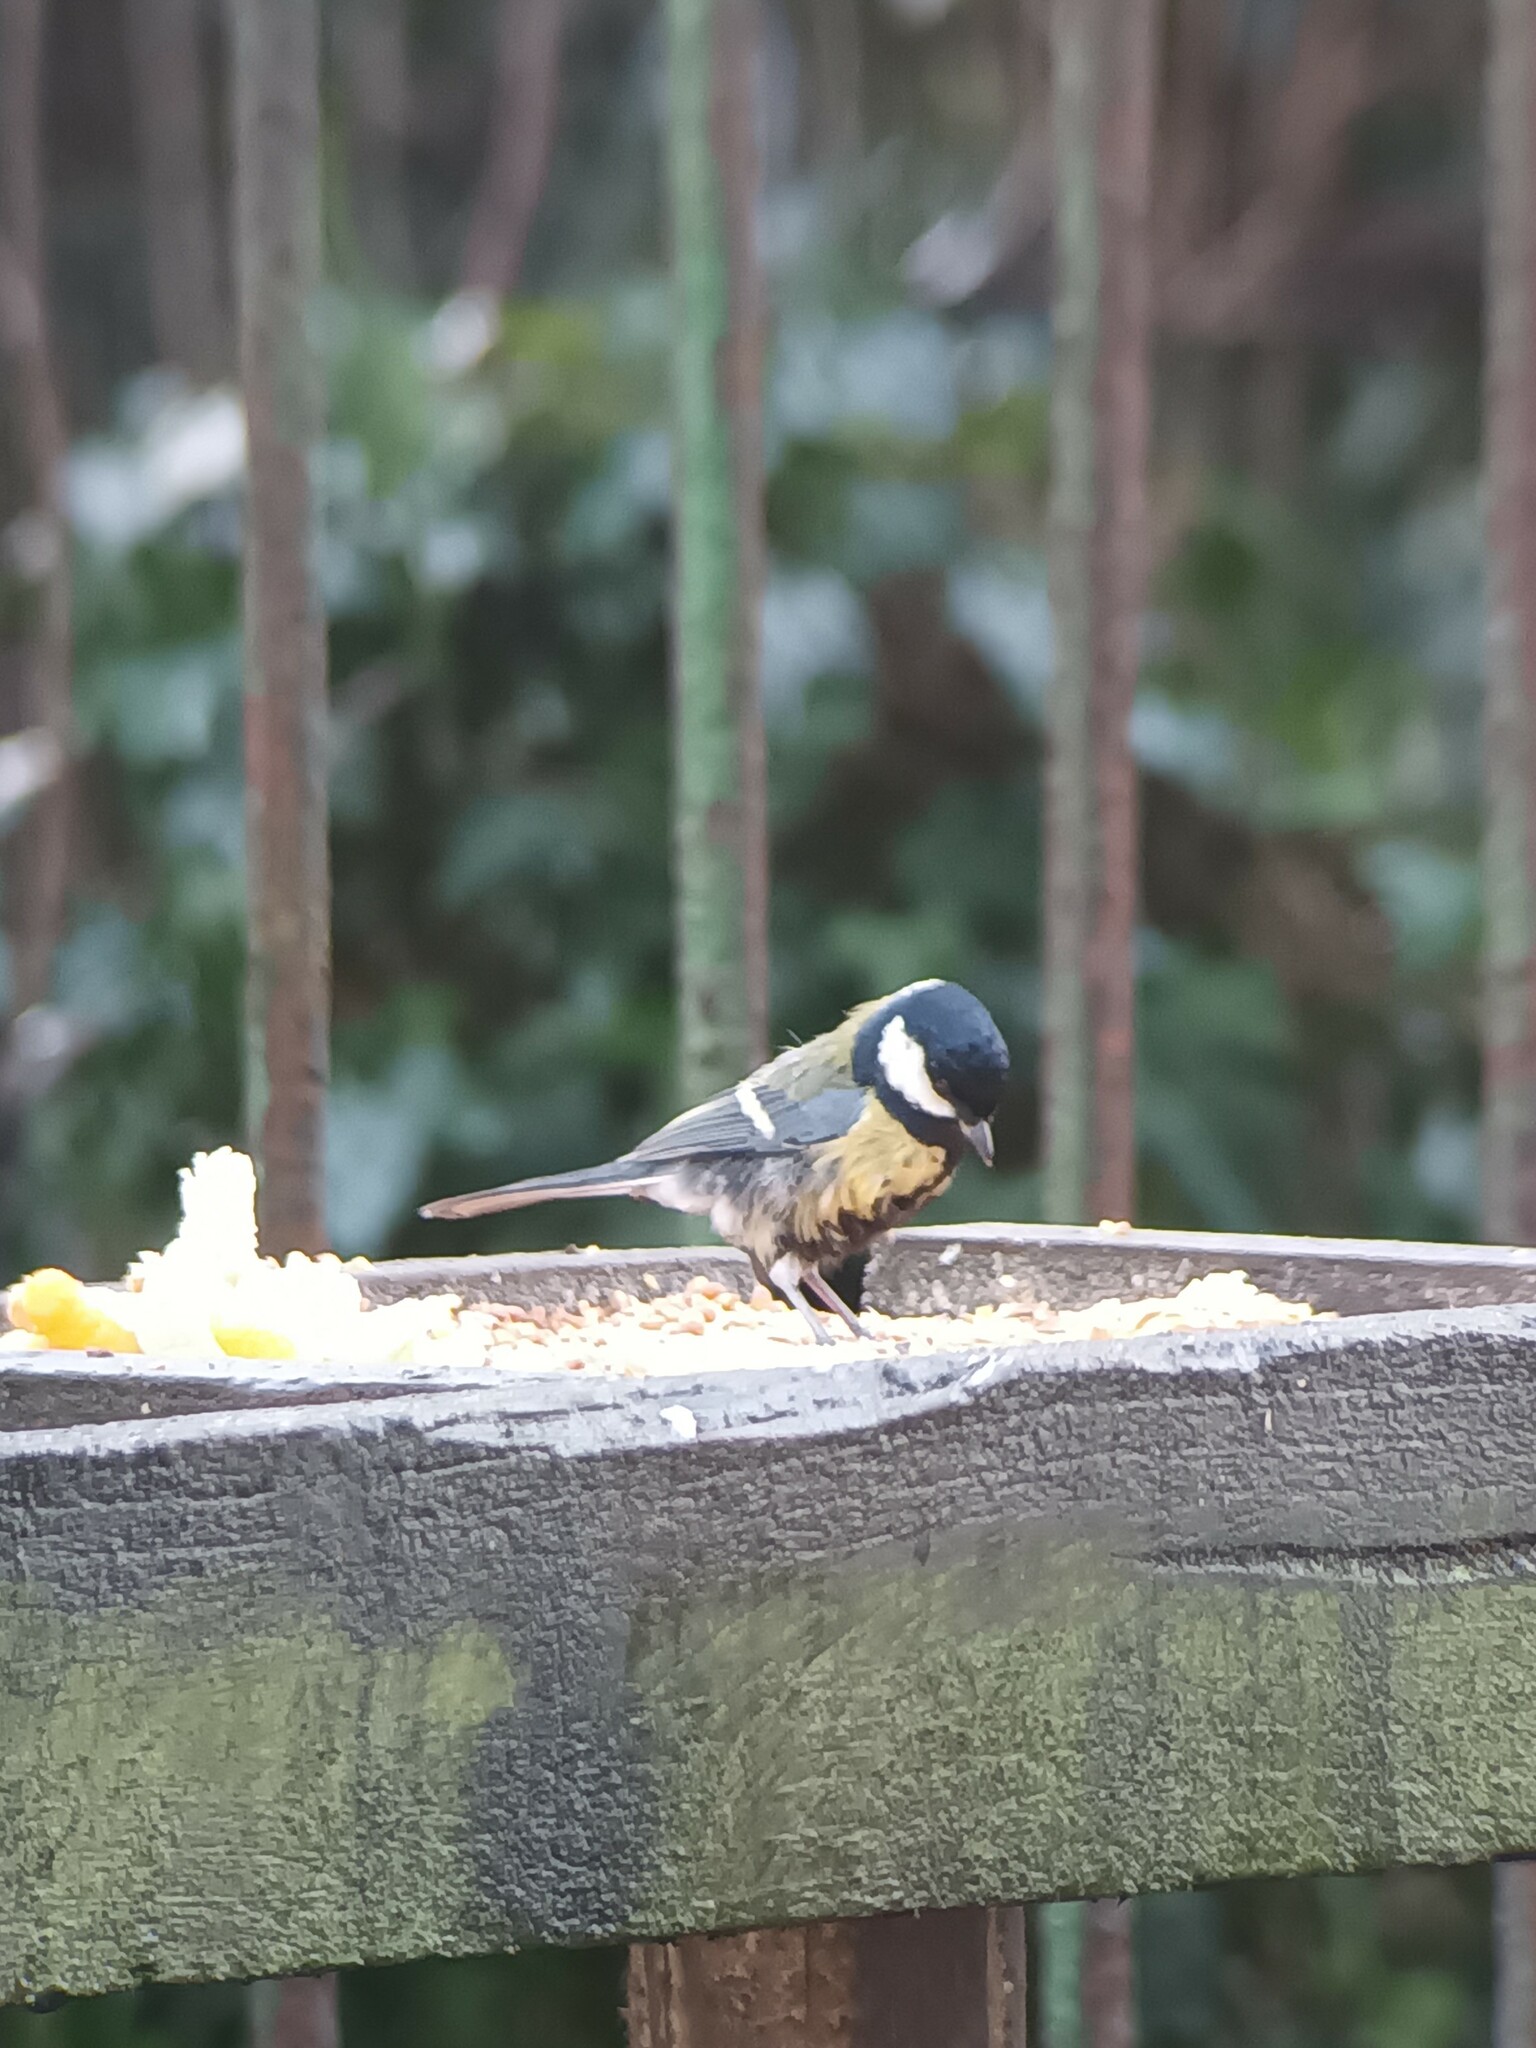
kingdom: Animalia
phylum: Chordata
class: Aves
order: Passeriformes
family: Paridae
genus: Parus
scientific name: Parus major
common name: Great tit
